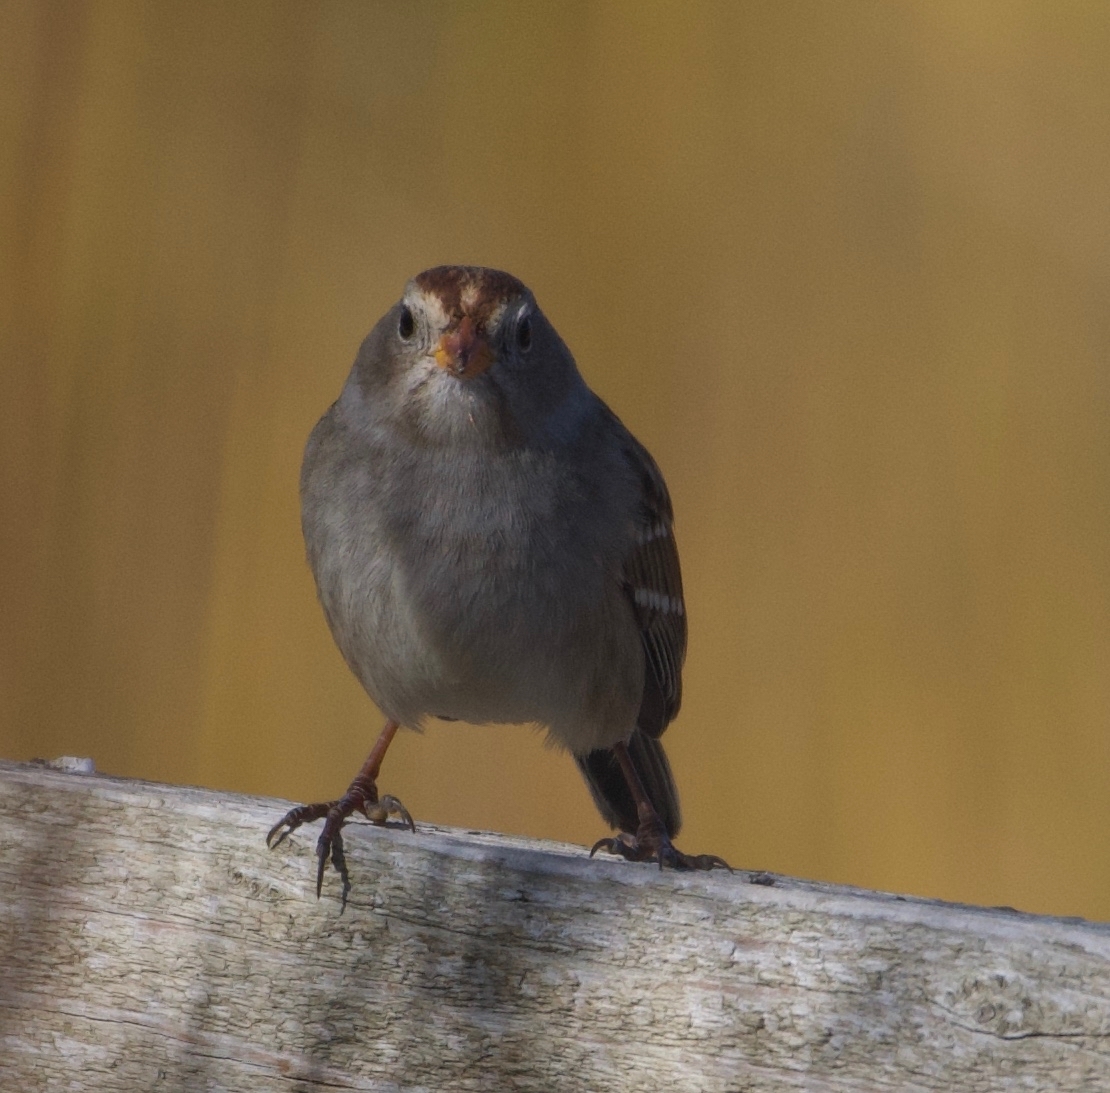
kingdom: Animalia
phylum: Chordata
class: Aves
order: Passeriformes
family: Passerellidae
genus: Zonotrichia
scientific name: Zonotrichia leucophrys
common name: White-crowned sparrow
